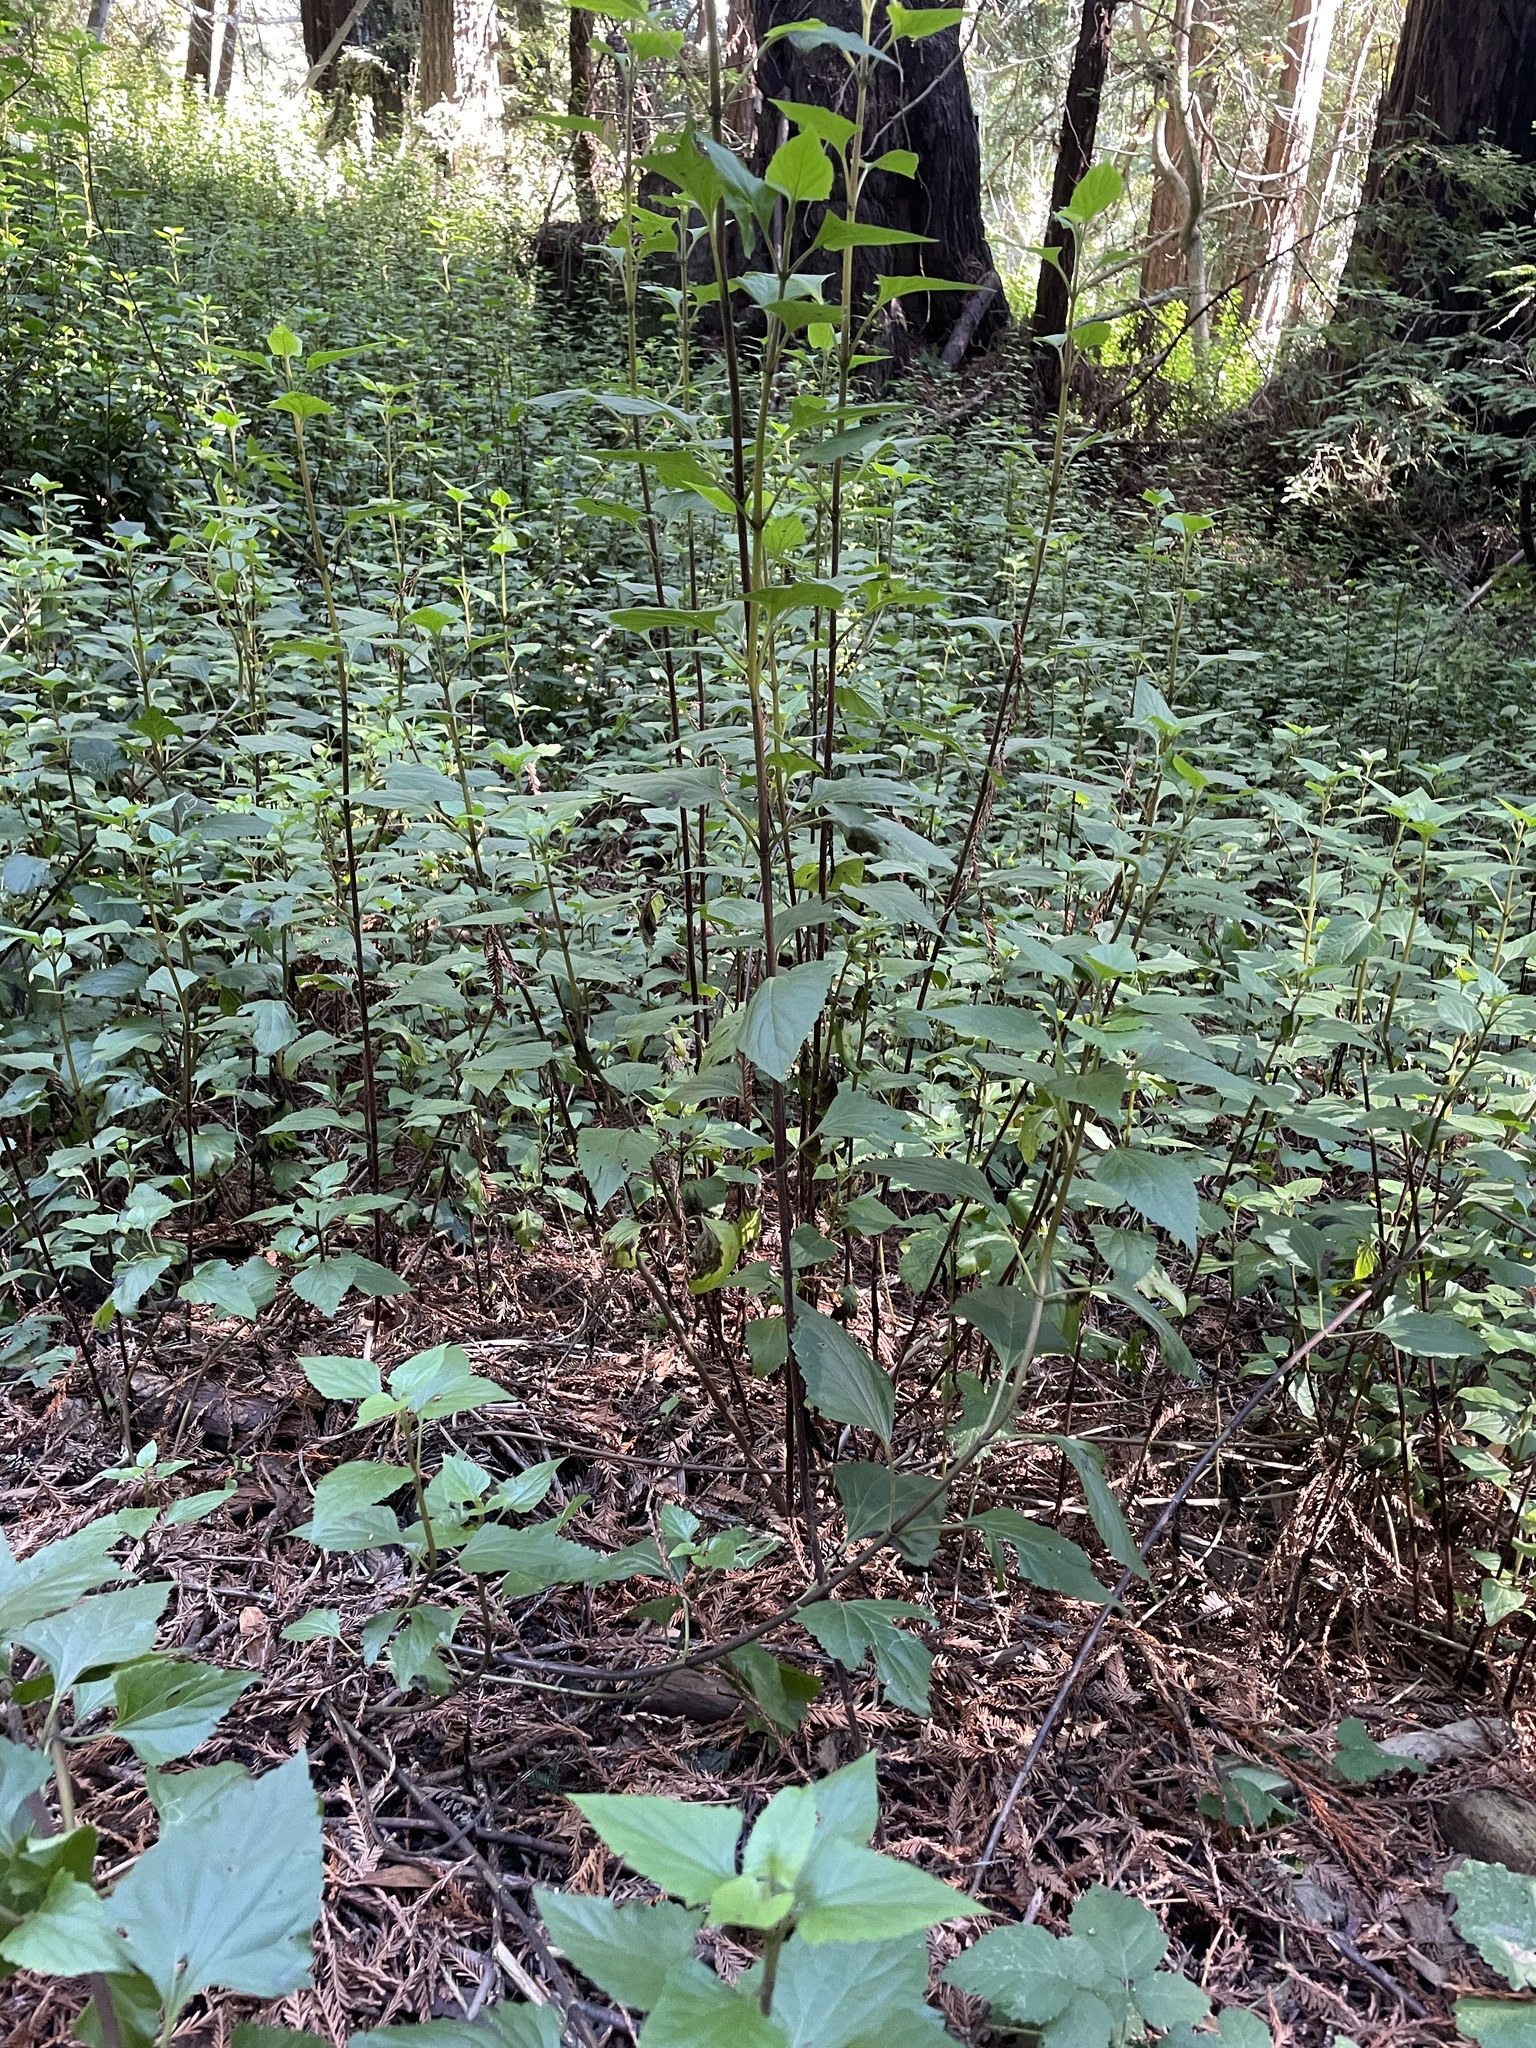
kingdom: Plantae
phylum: Tracheophyta
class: Magnoliopsida
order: Asterales
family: Asteraceae
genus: Ageratina
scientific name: Ageratina adenophora
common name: Sticky snakeroot
